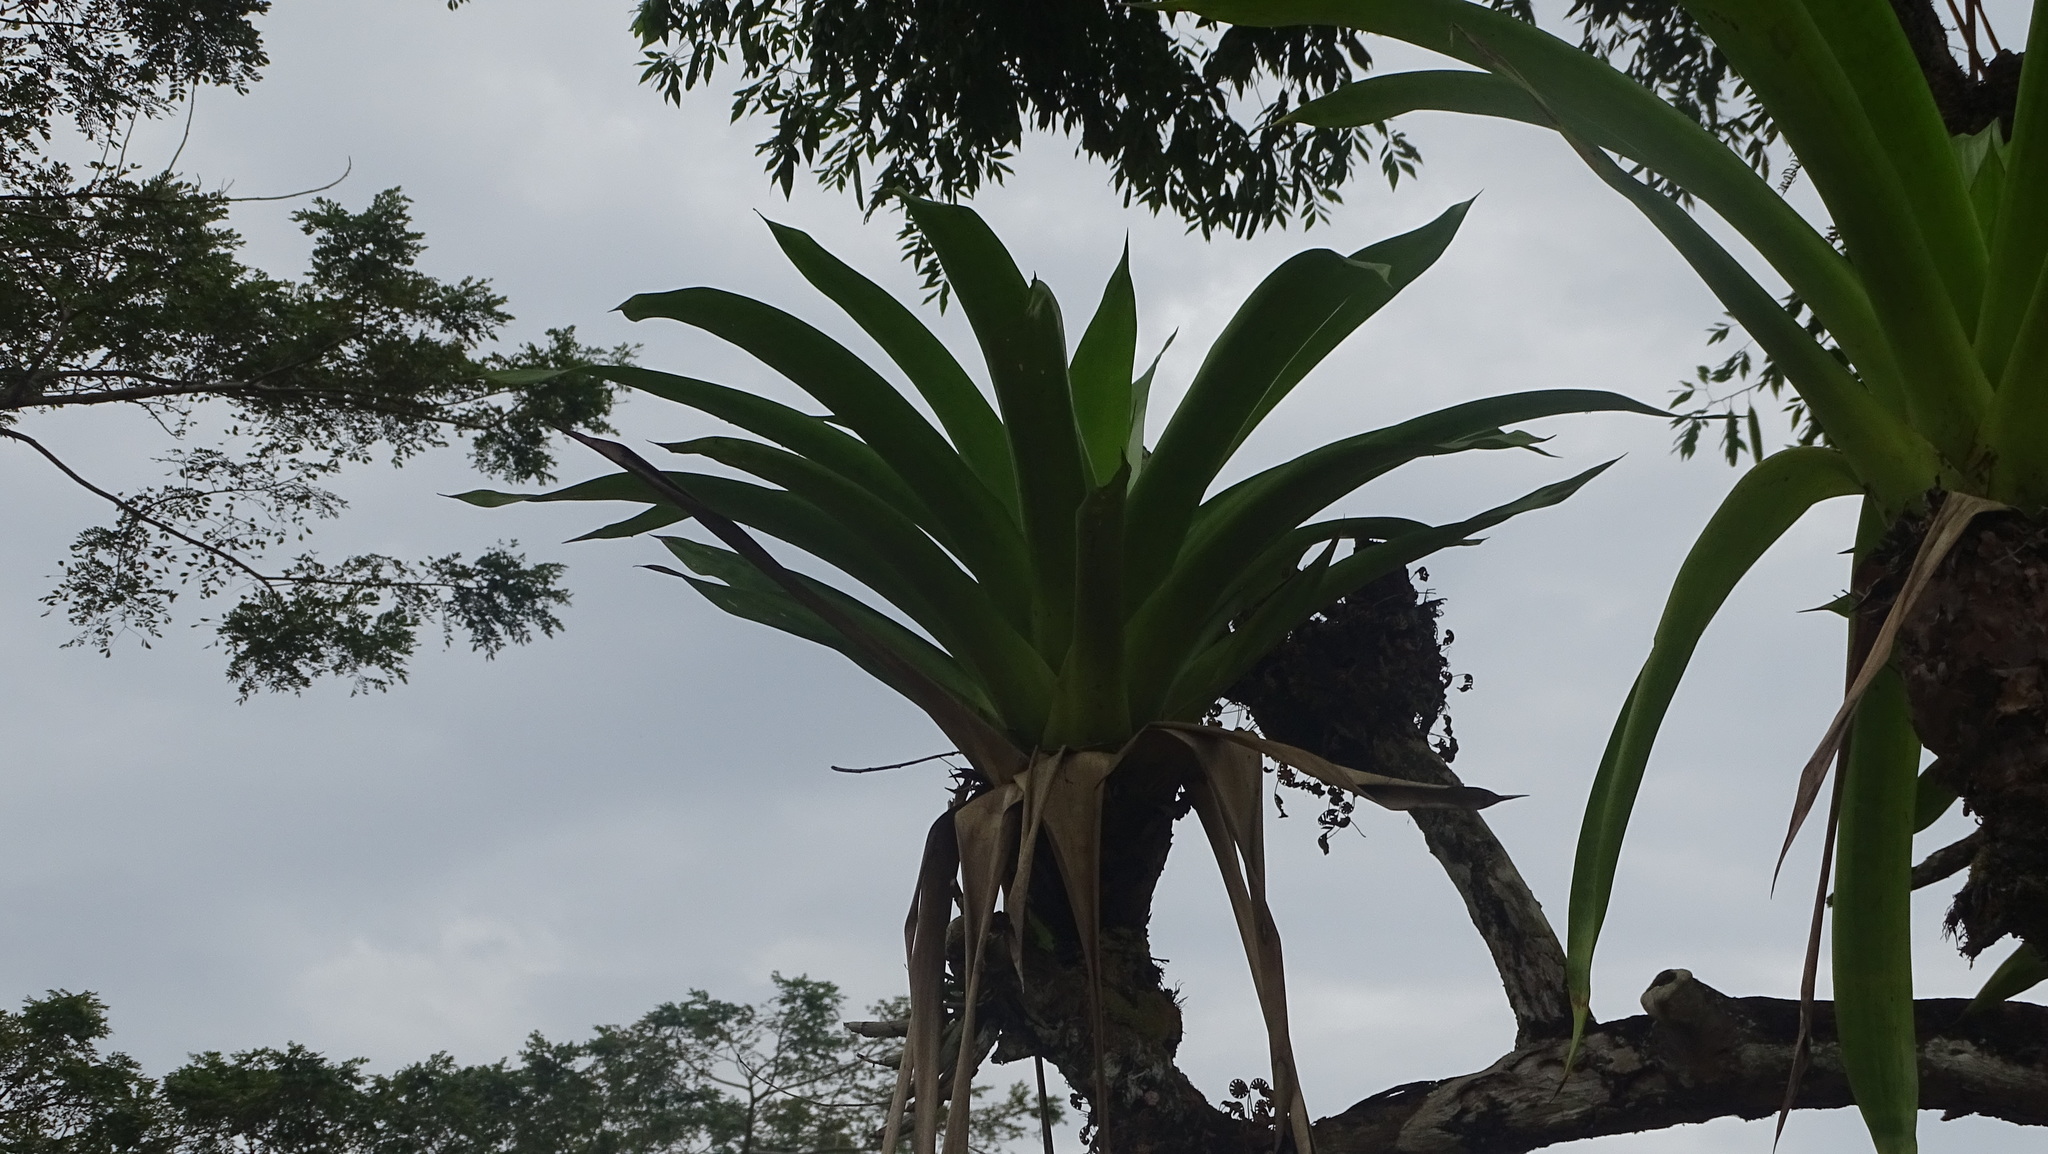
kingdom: Plantae
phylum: Tracheophyta
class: Liliopsida
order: Poales
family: Bromeliaceae
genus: Werauhia
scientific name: Werauhia sanguinolenta
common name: Bromeliad
